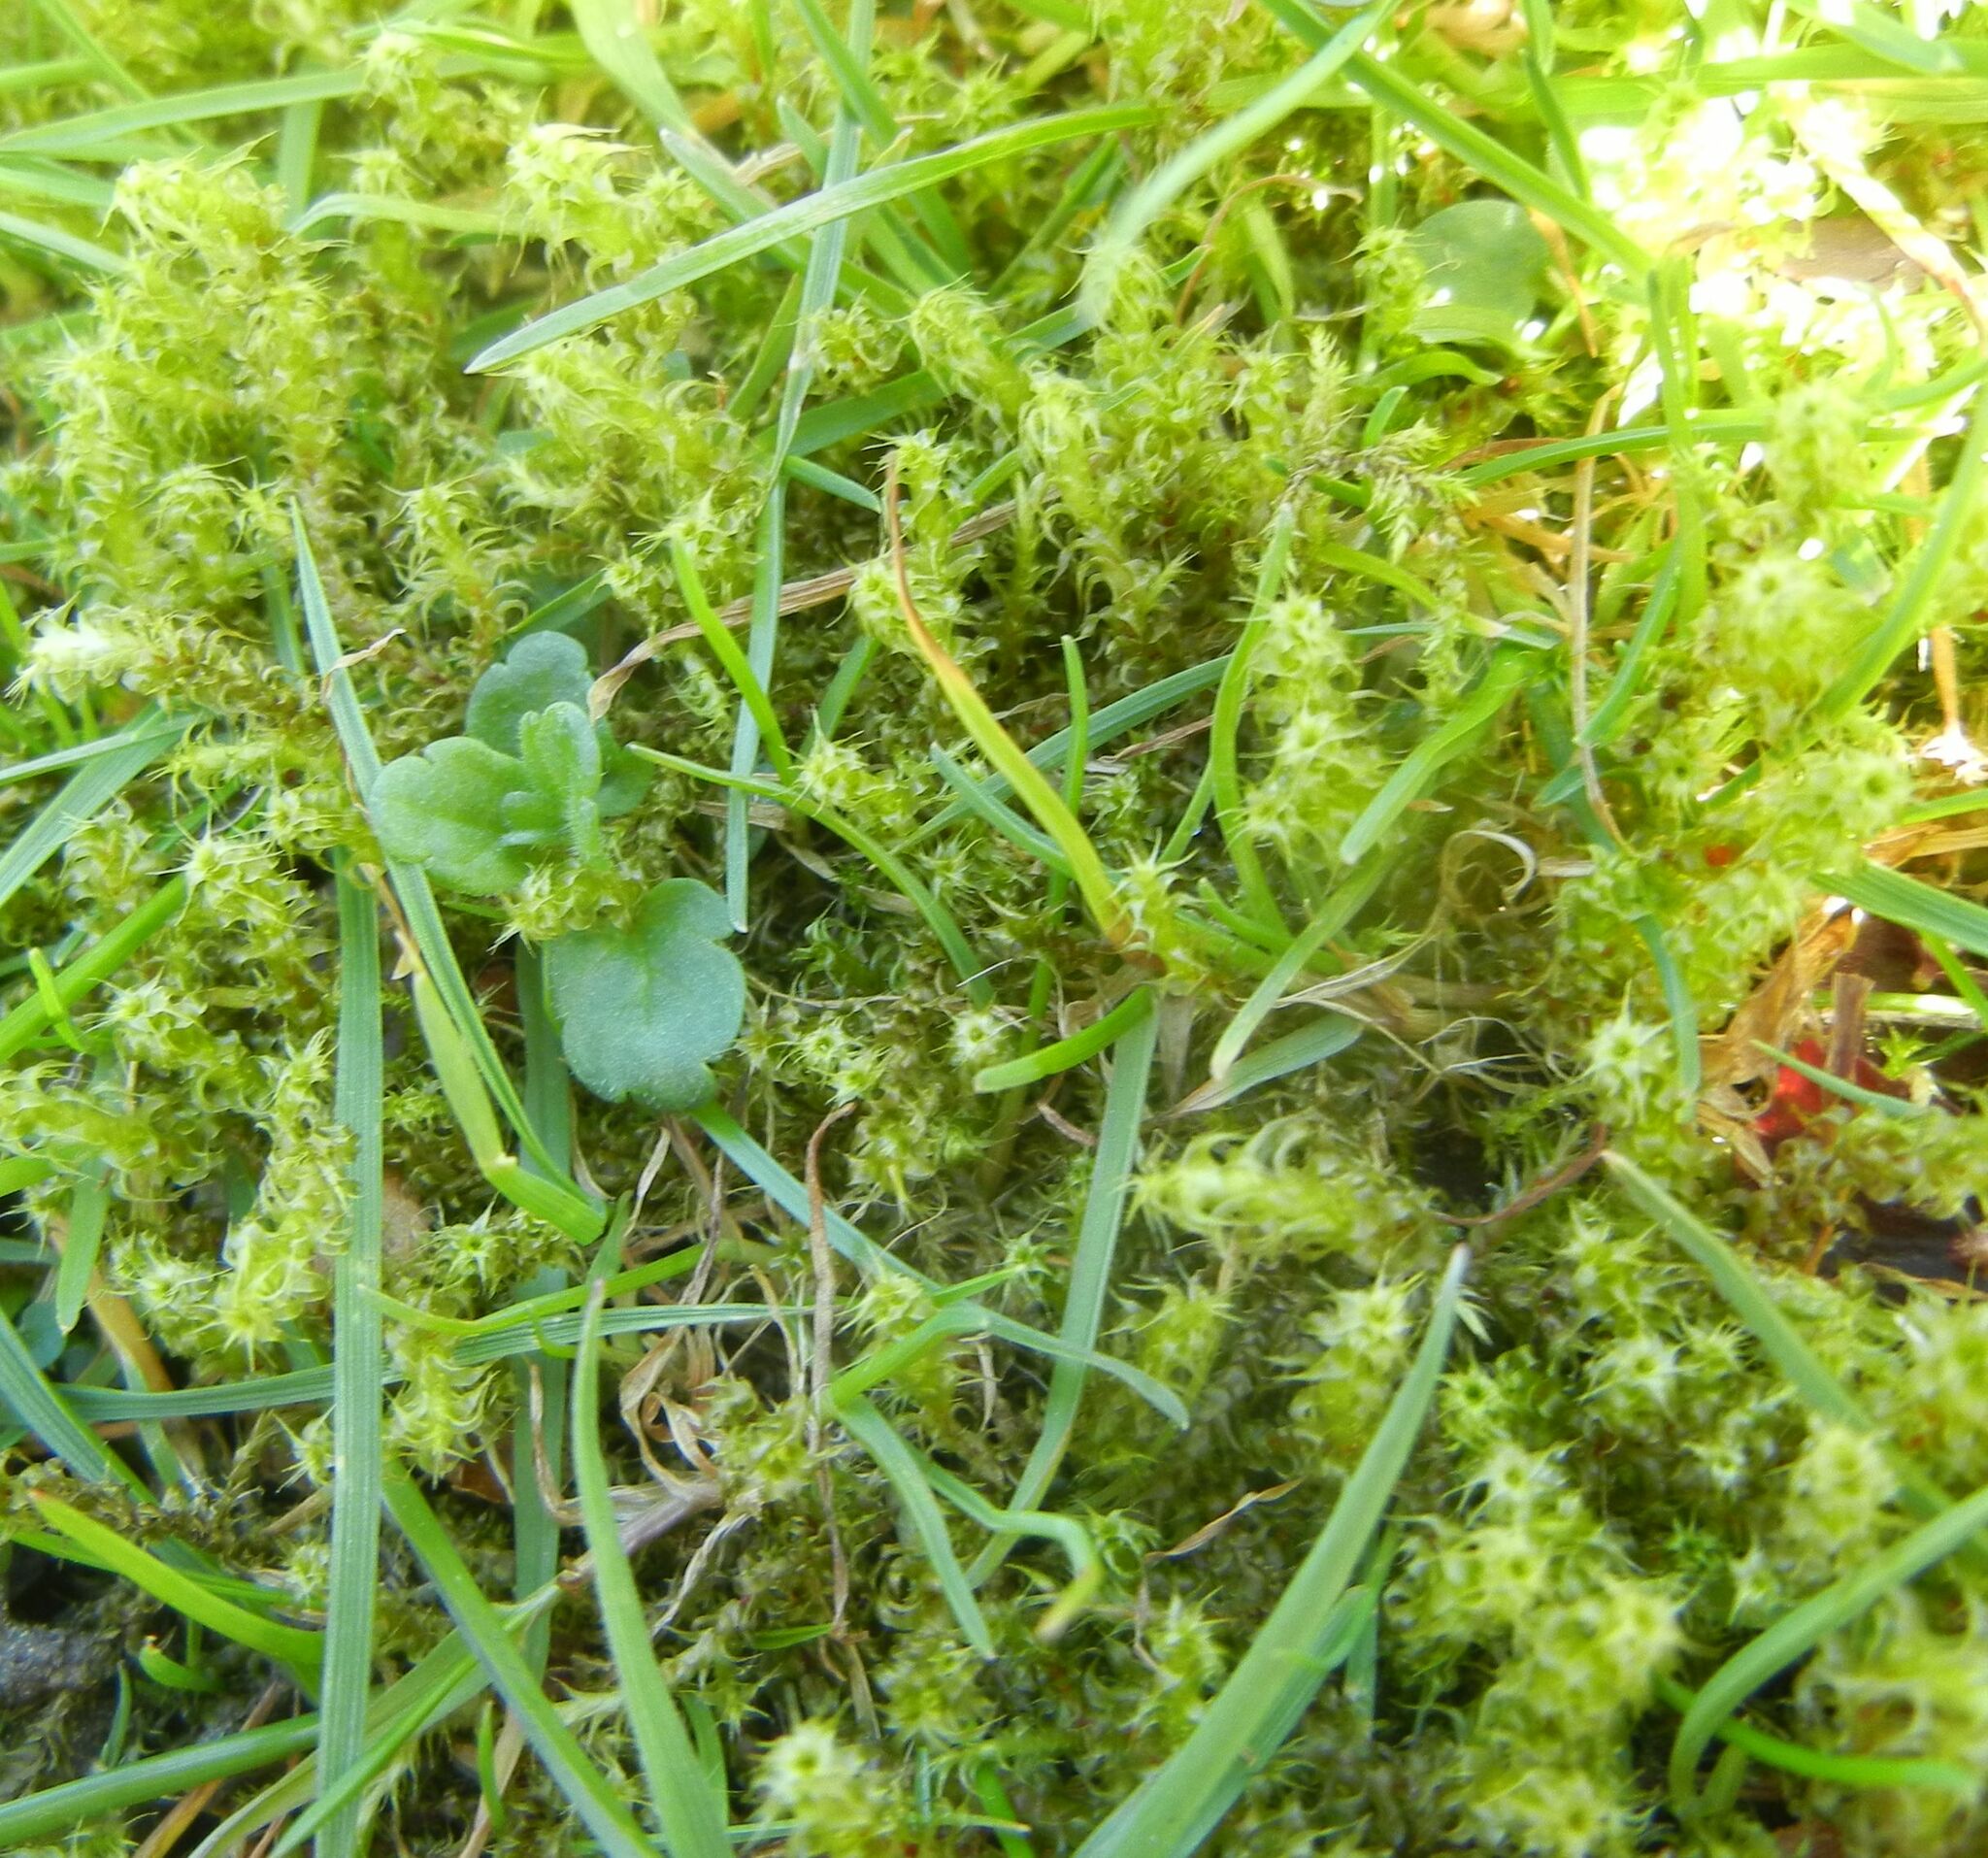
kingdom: Plantae
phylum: Bryophyta
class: Bryopsida
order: Hypnales
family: Hylocomiaceae
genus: Rhytidiadelphus
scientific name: Rhytidiadelphus squarrosus
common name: Springy turf-moss
